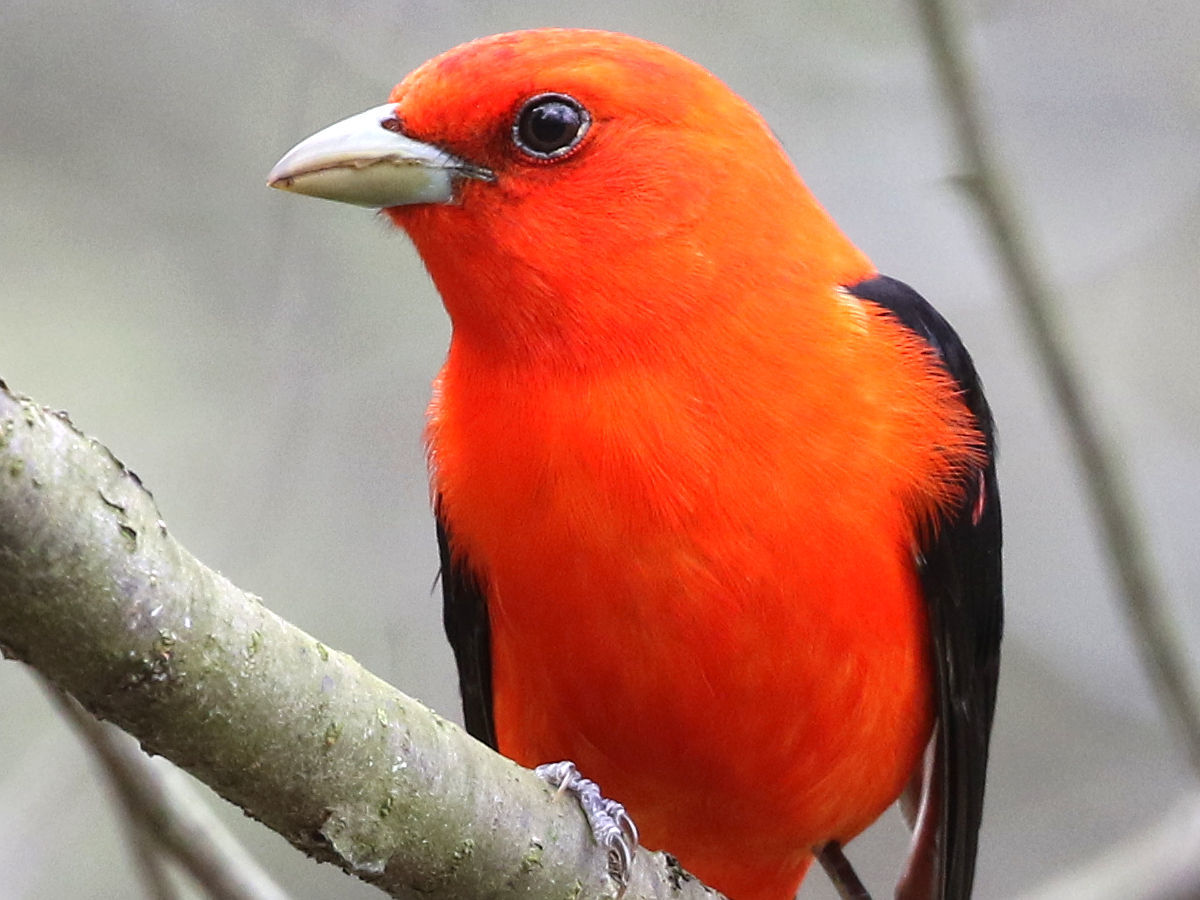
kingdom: Animalia
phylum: Chordata
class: Aves
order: Passeriformes
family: Cardinalidae
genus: Piranga
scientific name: Piranga olivacea
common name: Scarlet tanager
